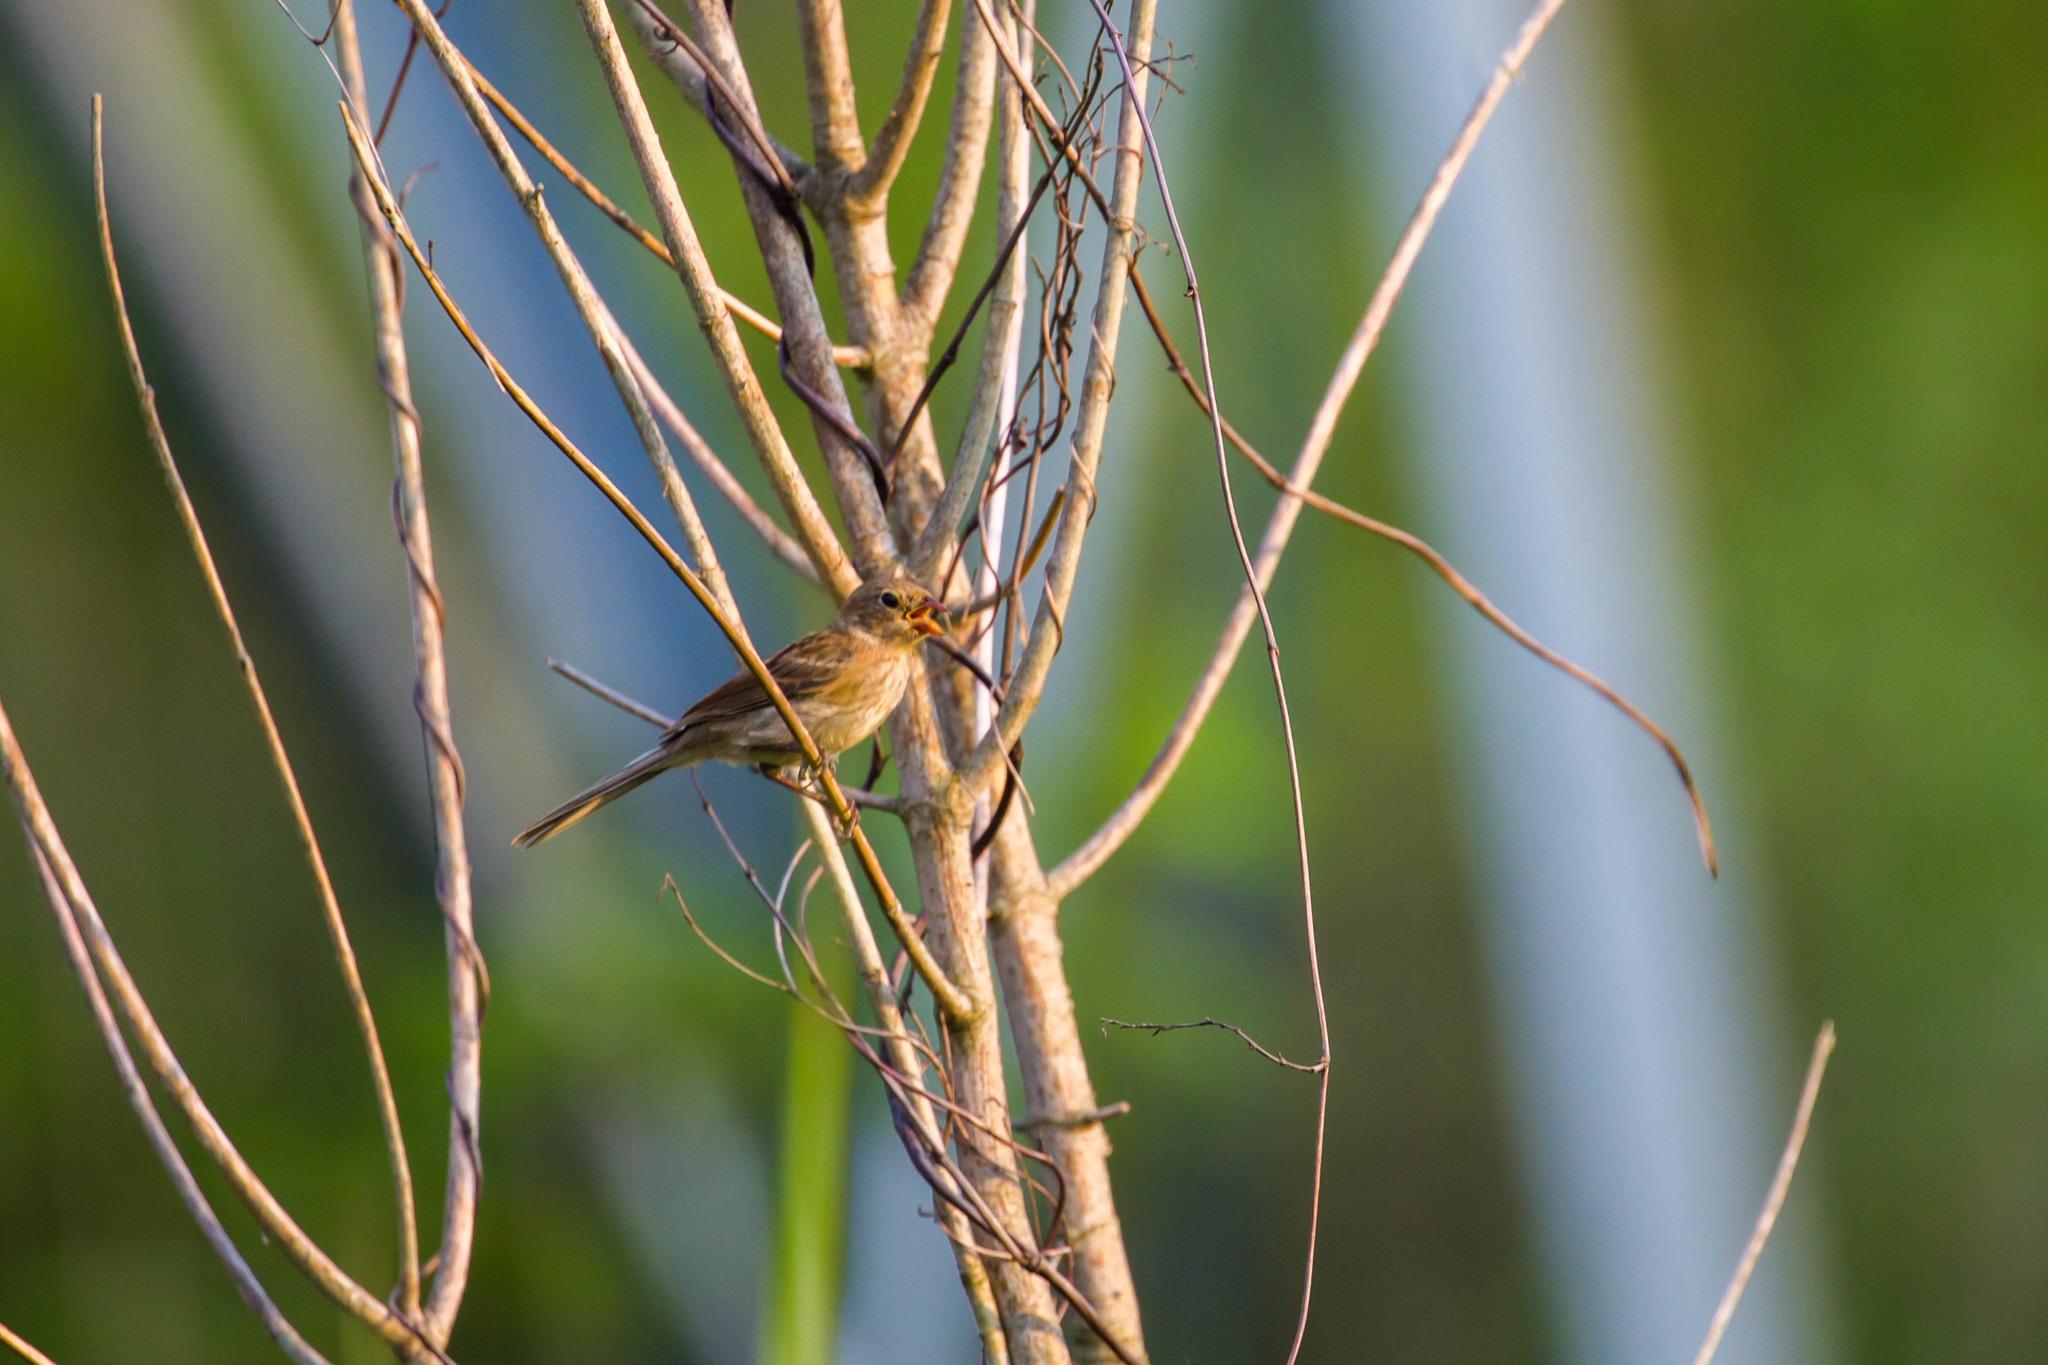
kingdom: Animalia
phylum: Chordata
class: Aves
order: Passeriformes
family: Passerellidae
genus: Spizella
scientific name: Spizella pusilla
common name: Field sparrow
